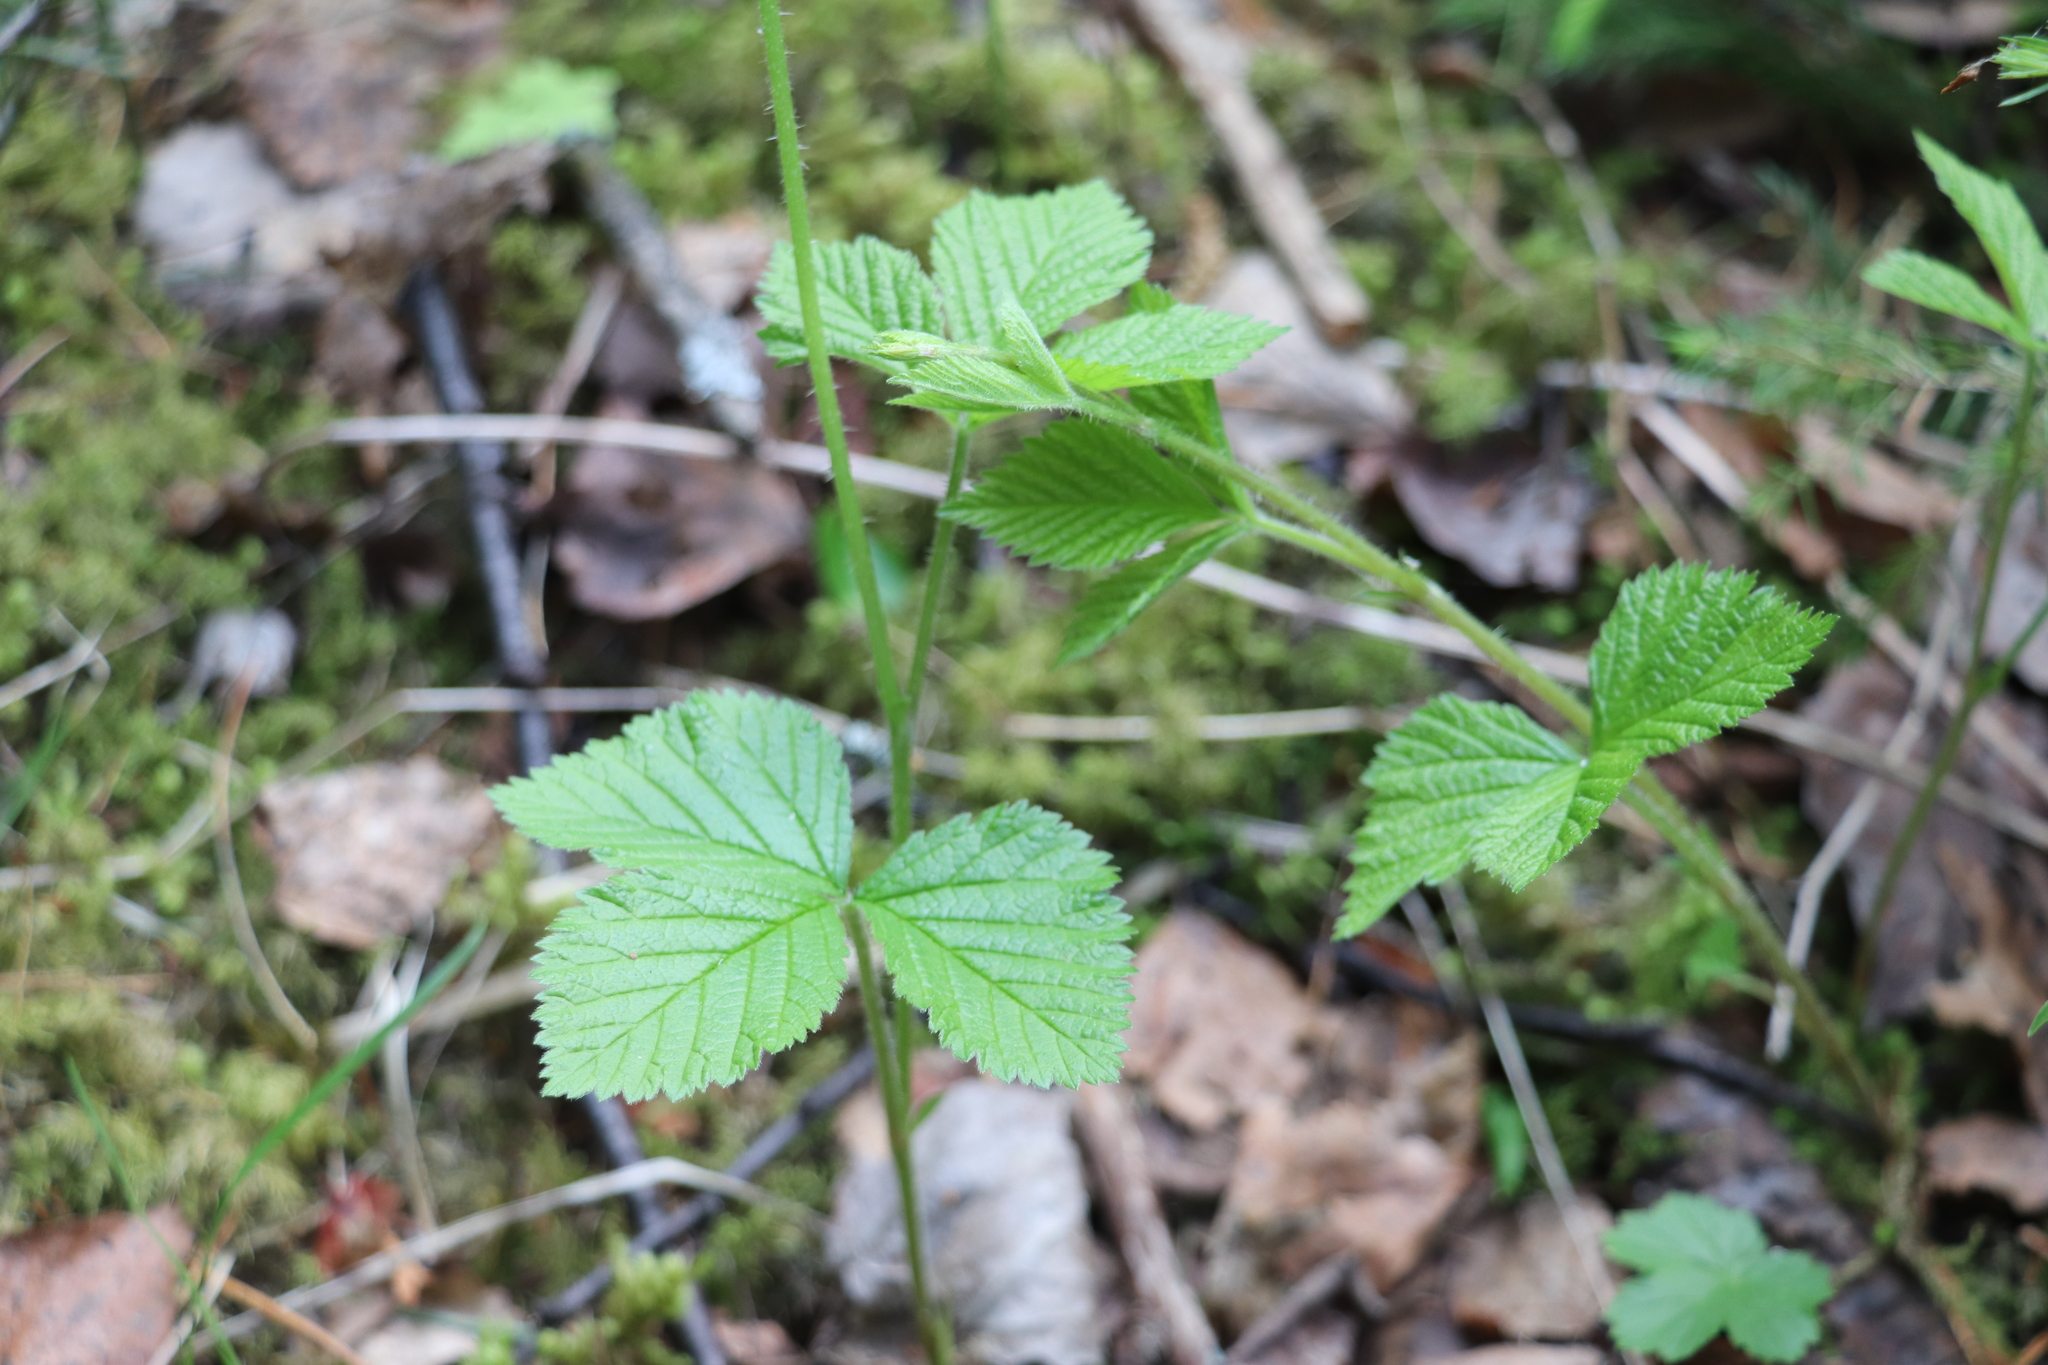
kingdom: Plantae
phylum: Tracheophyta
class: Magnoliopsida
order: Rosales
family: Rosaceae
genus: Rubus
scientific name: Rubus saxatilis
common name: Stone bramble
